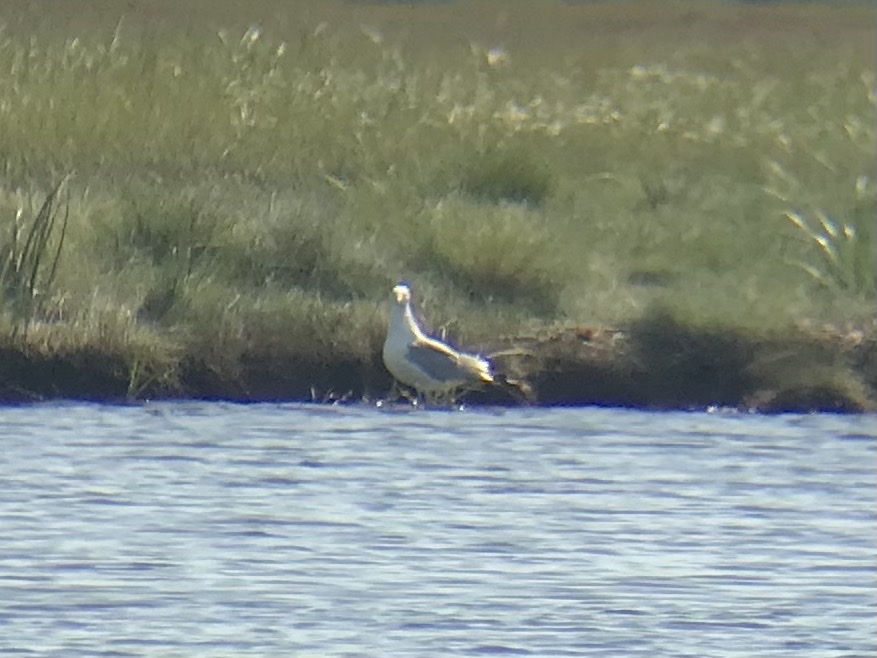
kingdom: Animalia
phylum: Chordata
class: Aves
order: Charadriiformes
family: Laridae
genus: Larus
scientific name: Larus argentatus
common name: Herring gull
